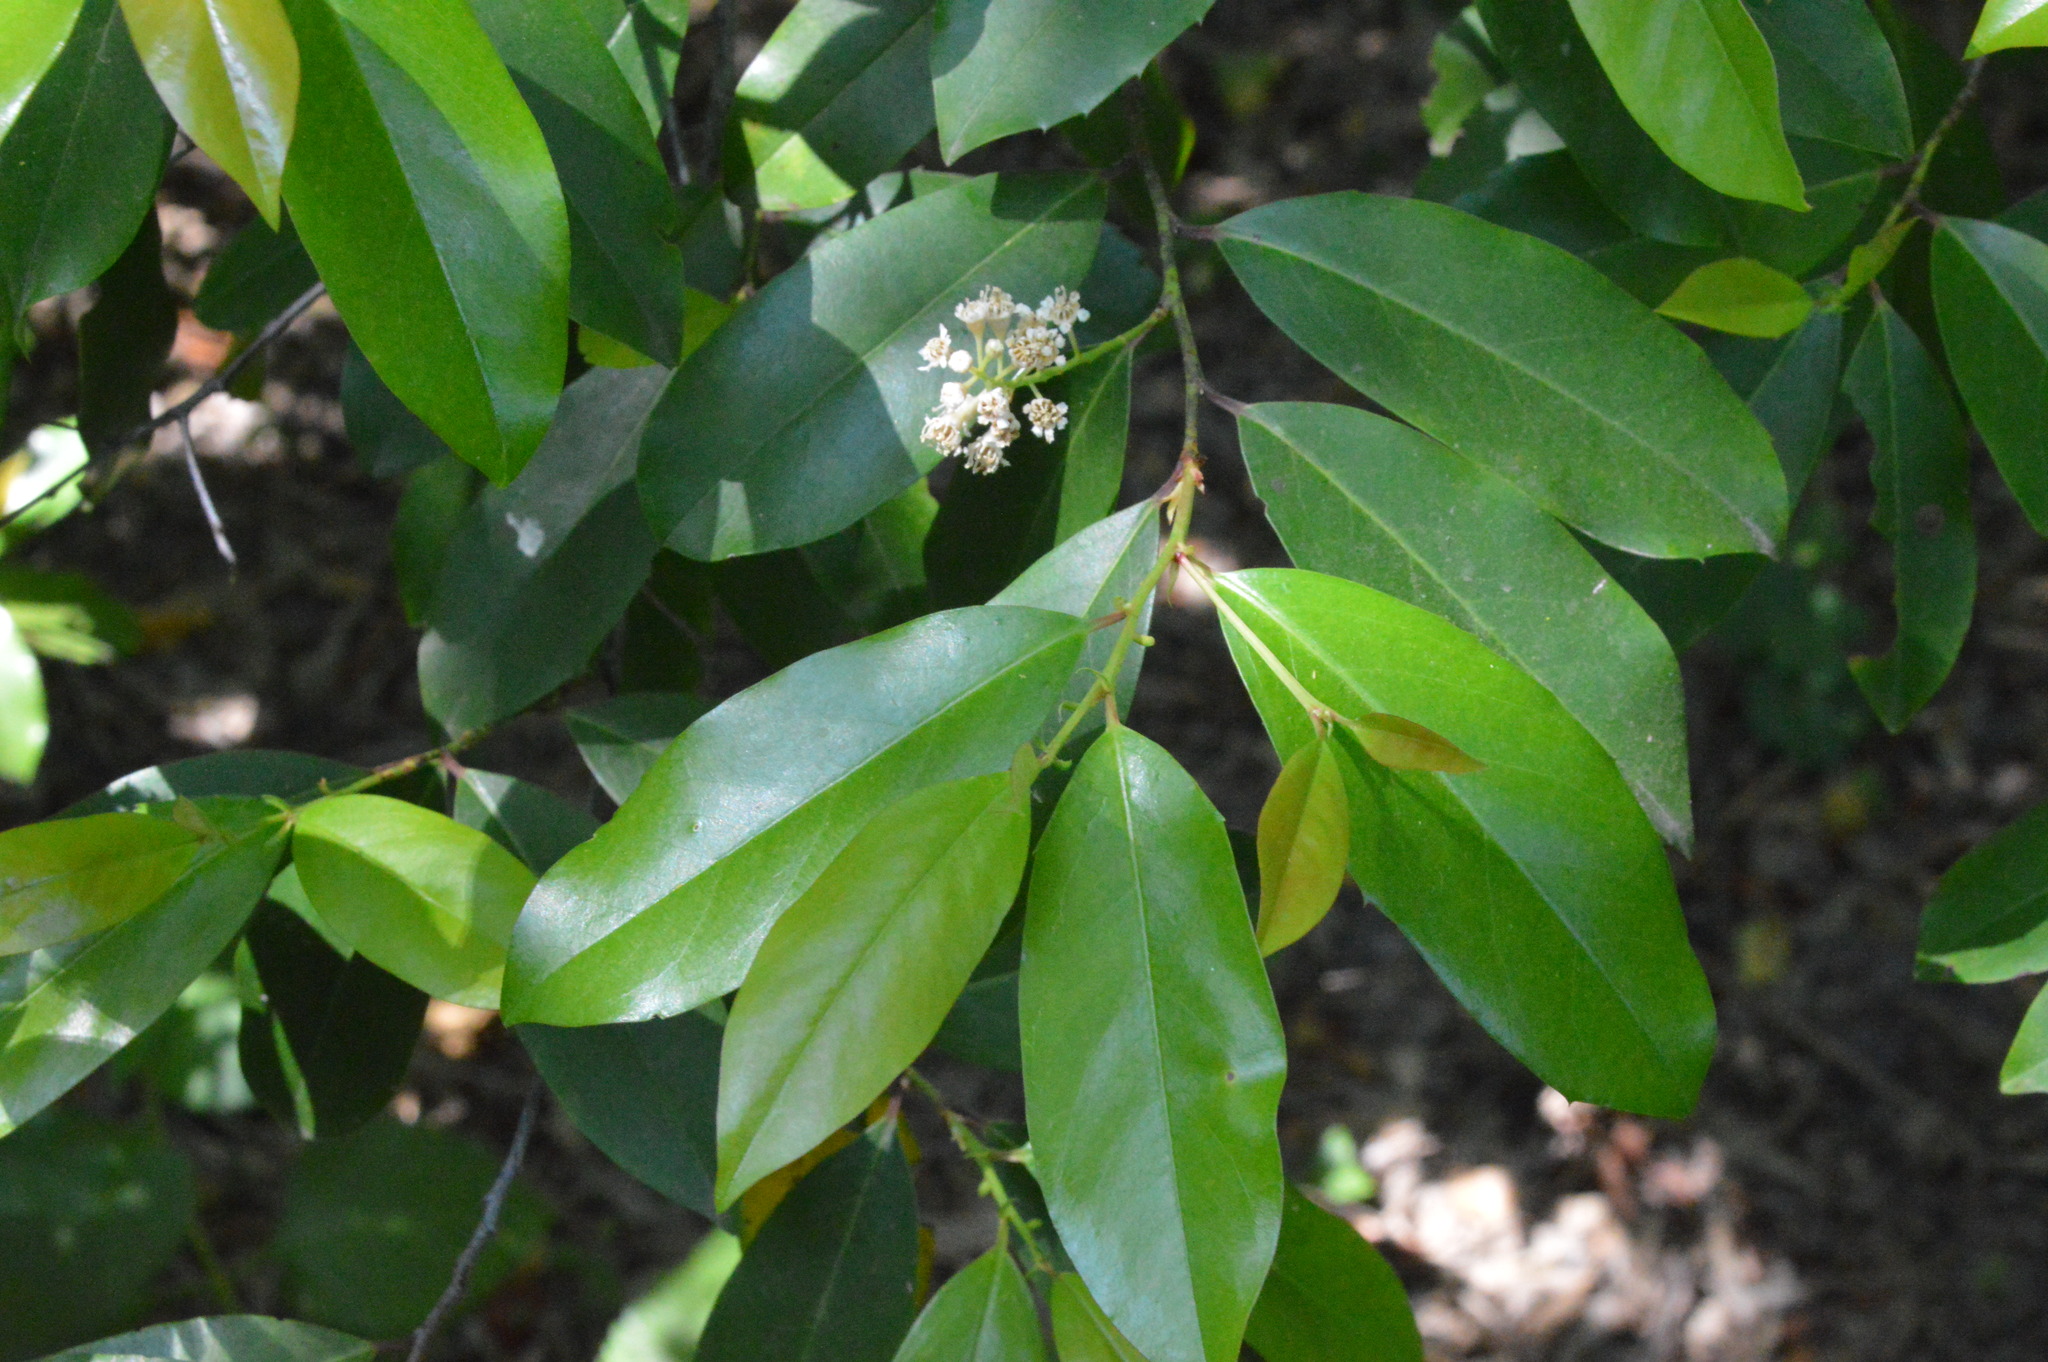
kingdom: Plantae
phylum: Tracheophyta
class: Magnoliopsida
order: Rosales
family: Rosaceae
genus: Prunus
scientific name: Prunus caroliniana
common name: Carolina laurel cherry
